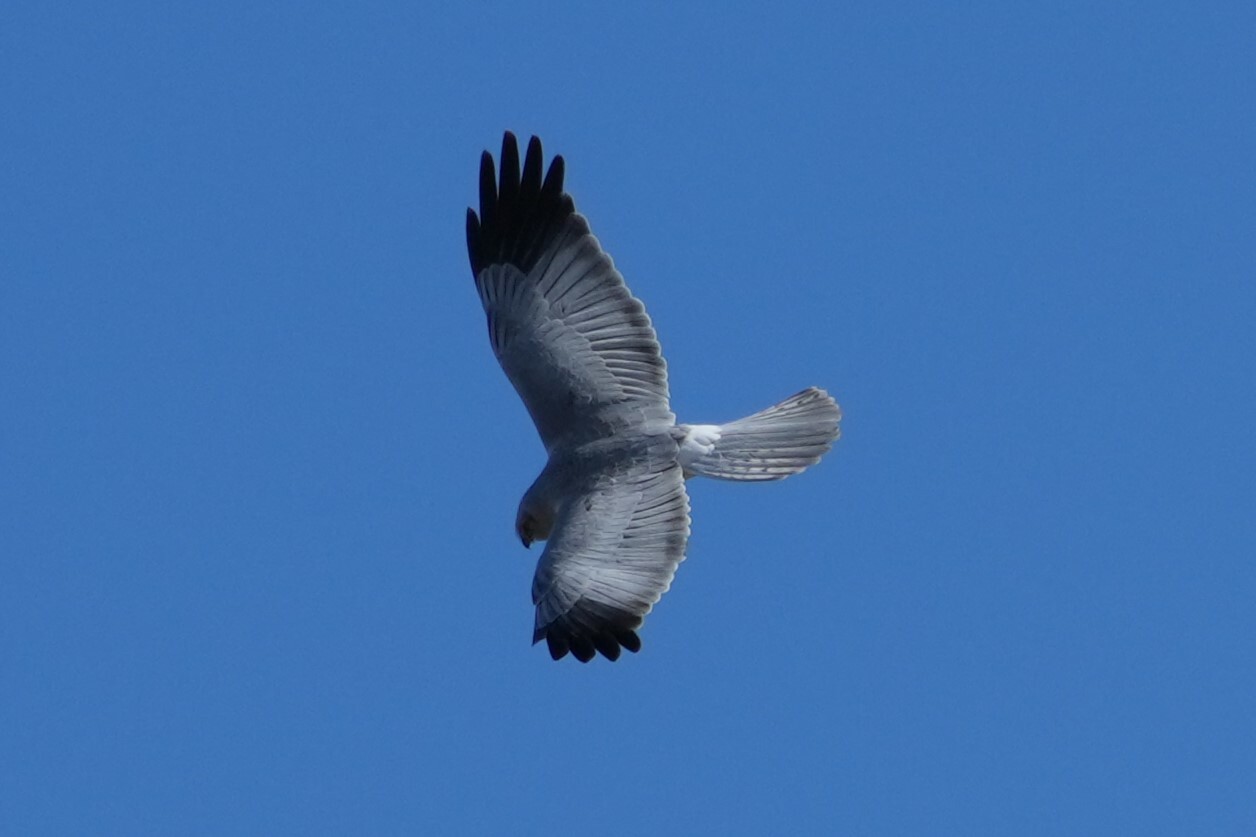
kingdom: Animalia
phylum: Chordata
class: Aves
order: Accipitriformes
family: Accipitridae
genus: Circus
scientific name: Circus cyaneus
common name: Hen harrier
